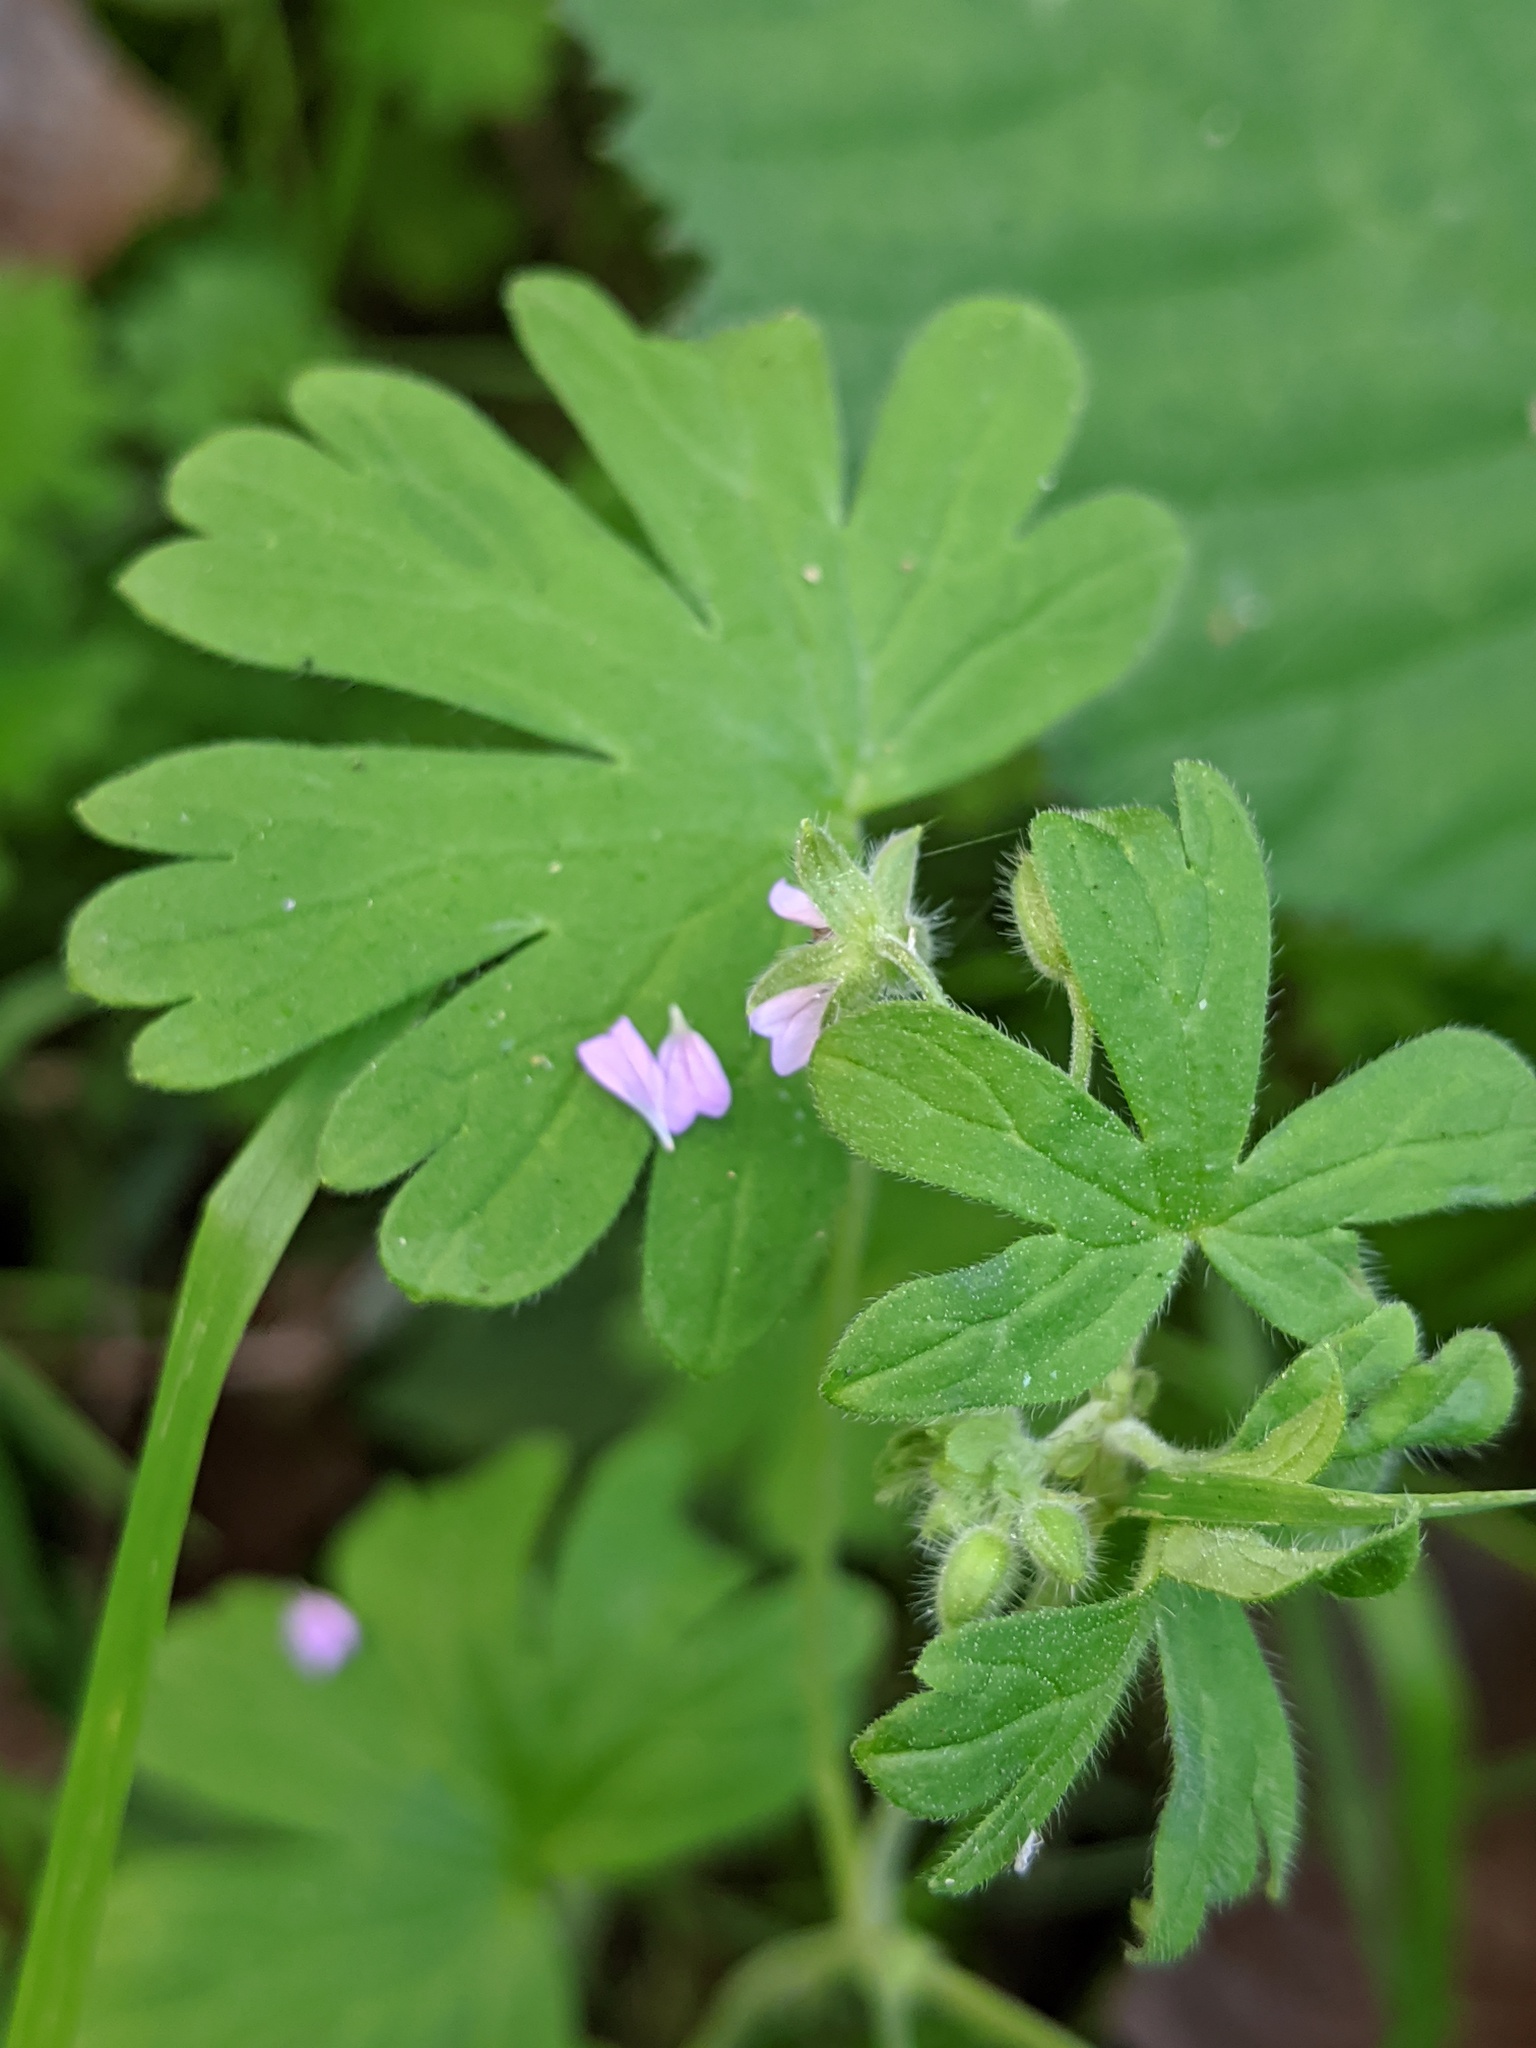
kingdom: Plantae
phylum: Tracheophyta
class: Magnoliopsida
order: Geraniales
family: Geraniaceae
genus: Geranium
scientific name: Geranium pusillum
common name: Small geranium
